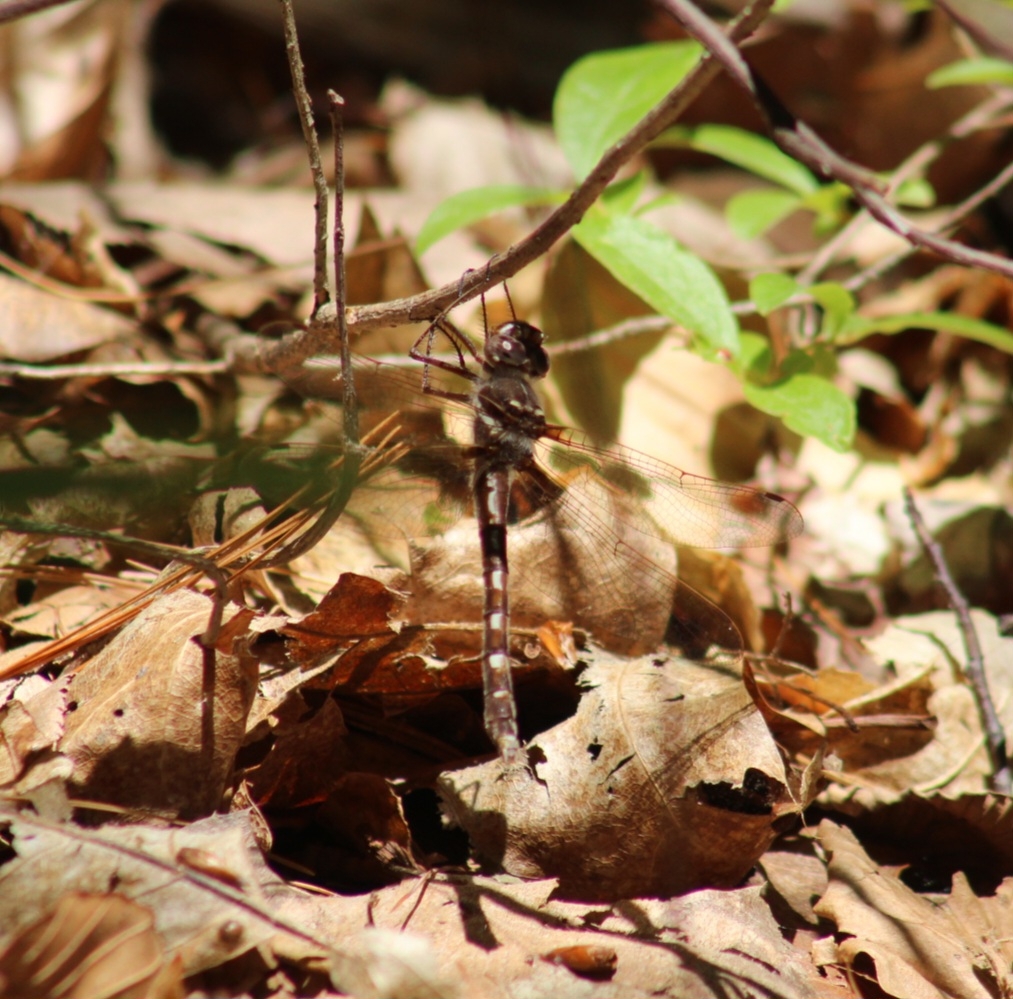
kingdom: Animalia
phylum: Arthropoda
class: Insecta
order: Odonata
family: Macromiidae
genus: Didymops
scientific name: Didymops transversa
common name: Stream cruiser
